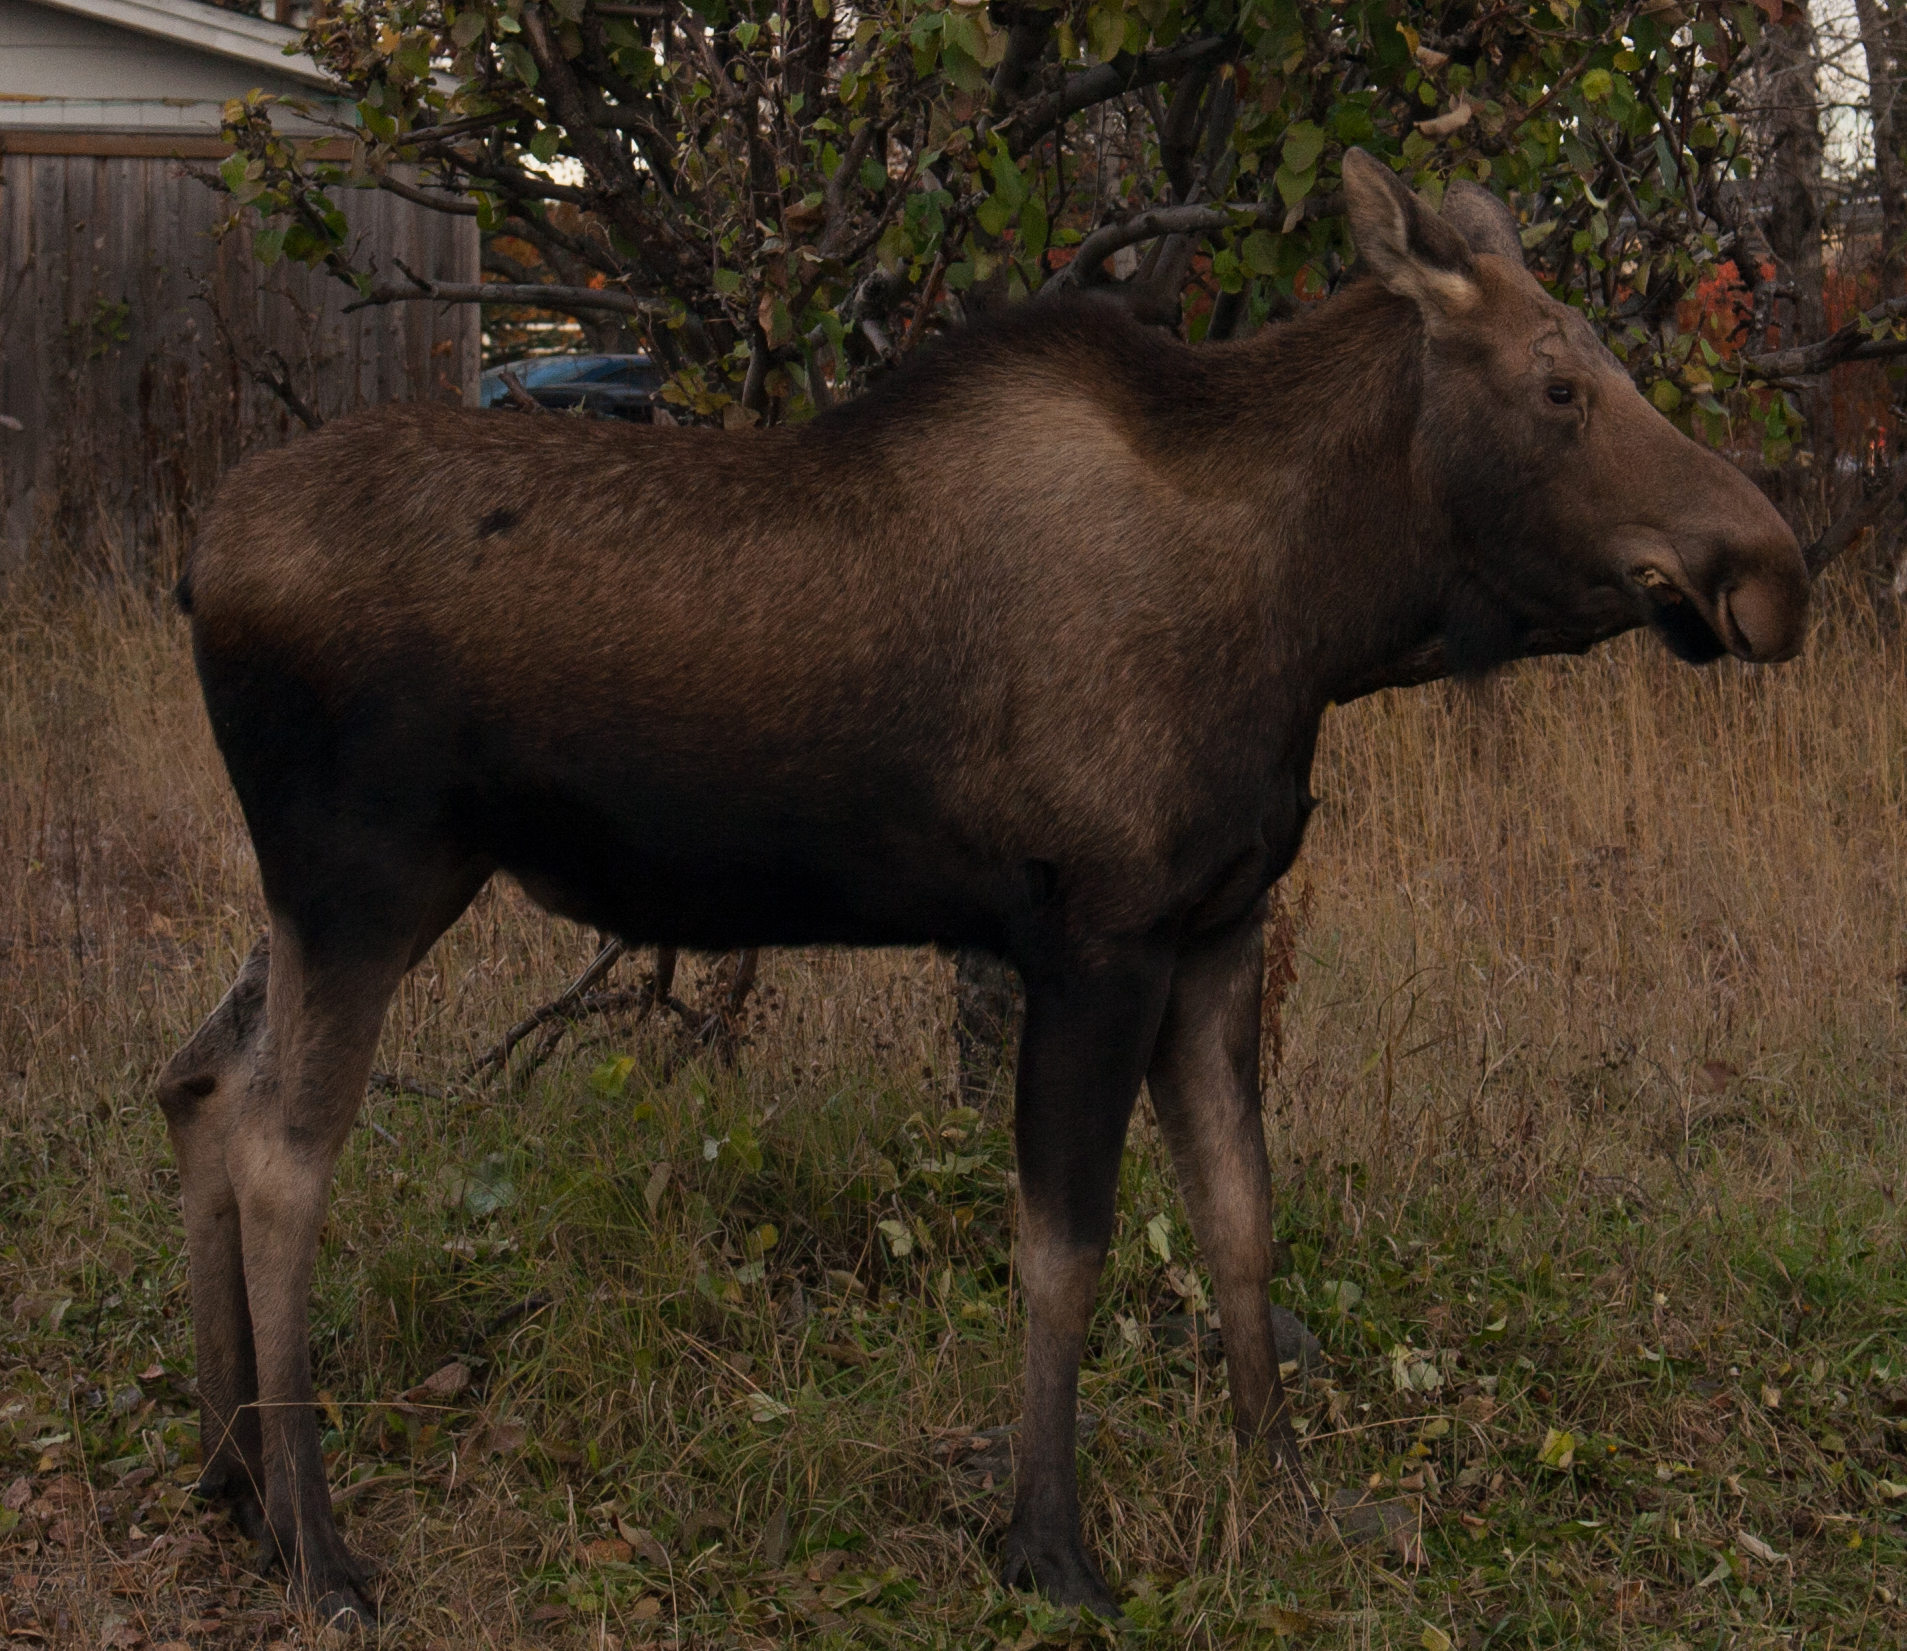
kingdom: Animalia
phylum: Chordata
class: Mammalia
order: Artiodactyla
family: Cervidae
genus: Alces
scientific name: Alces alces
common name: Moose
